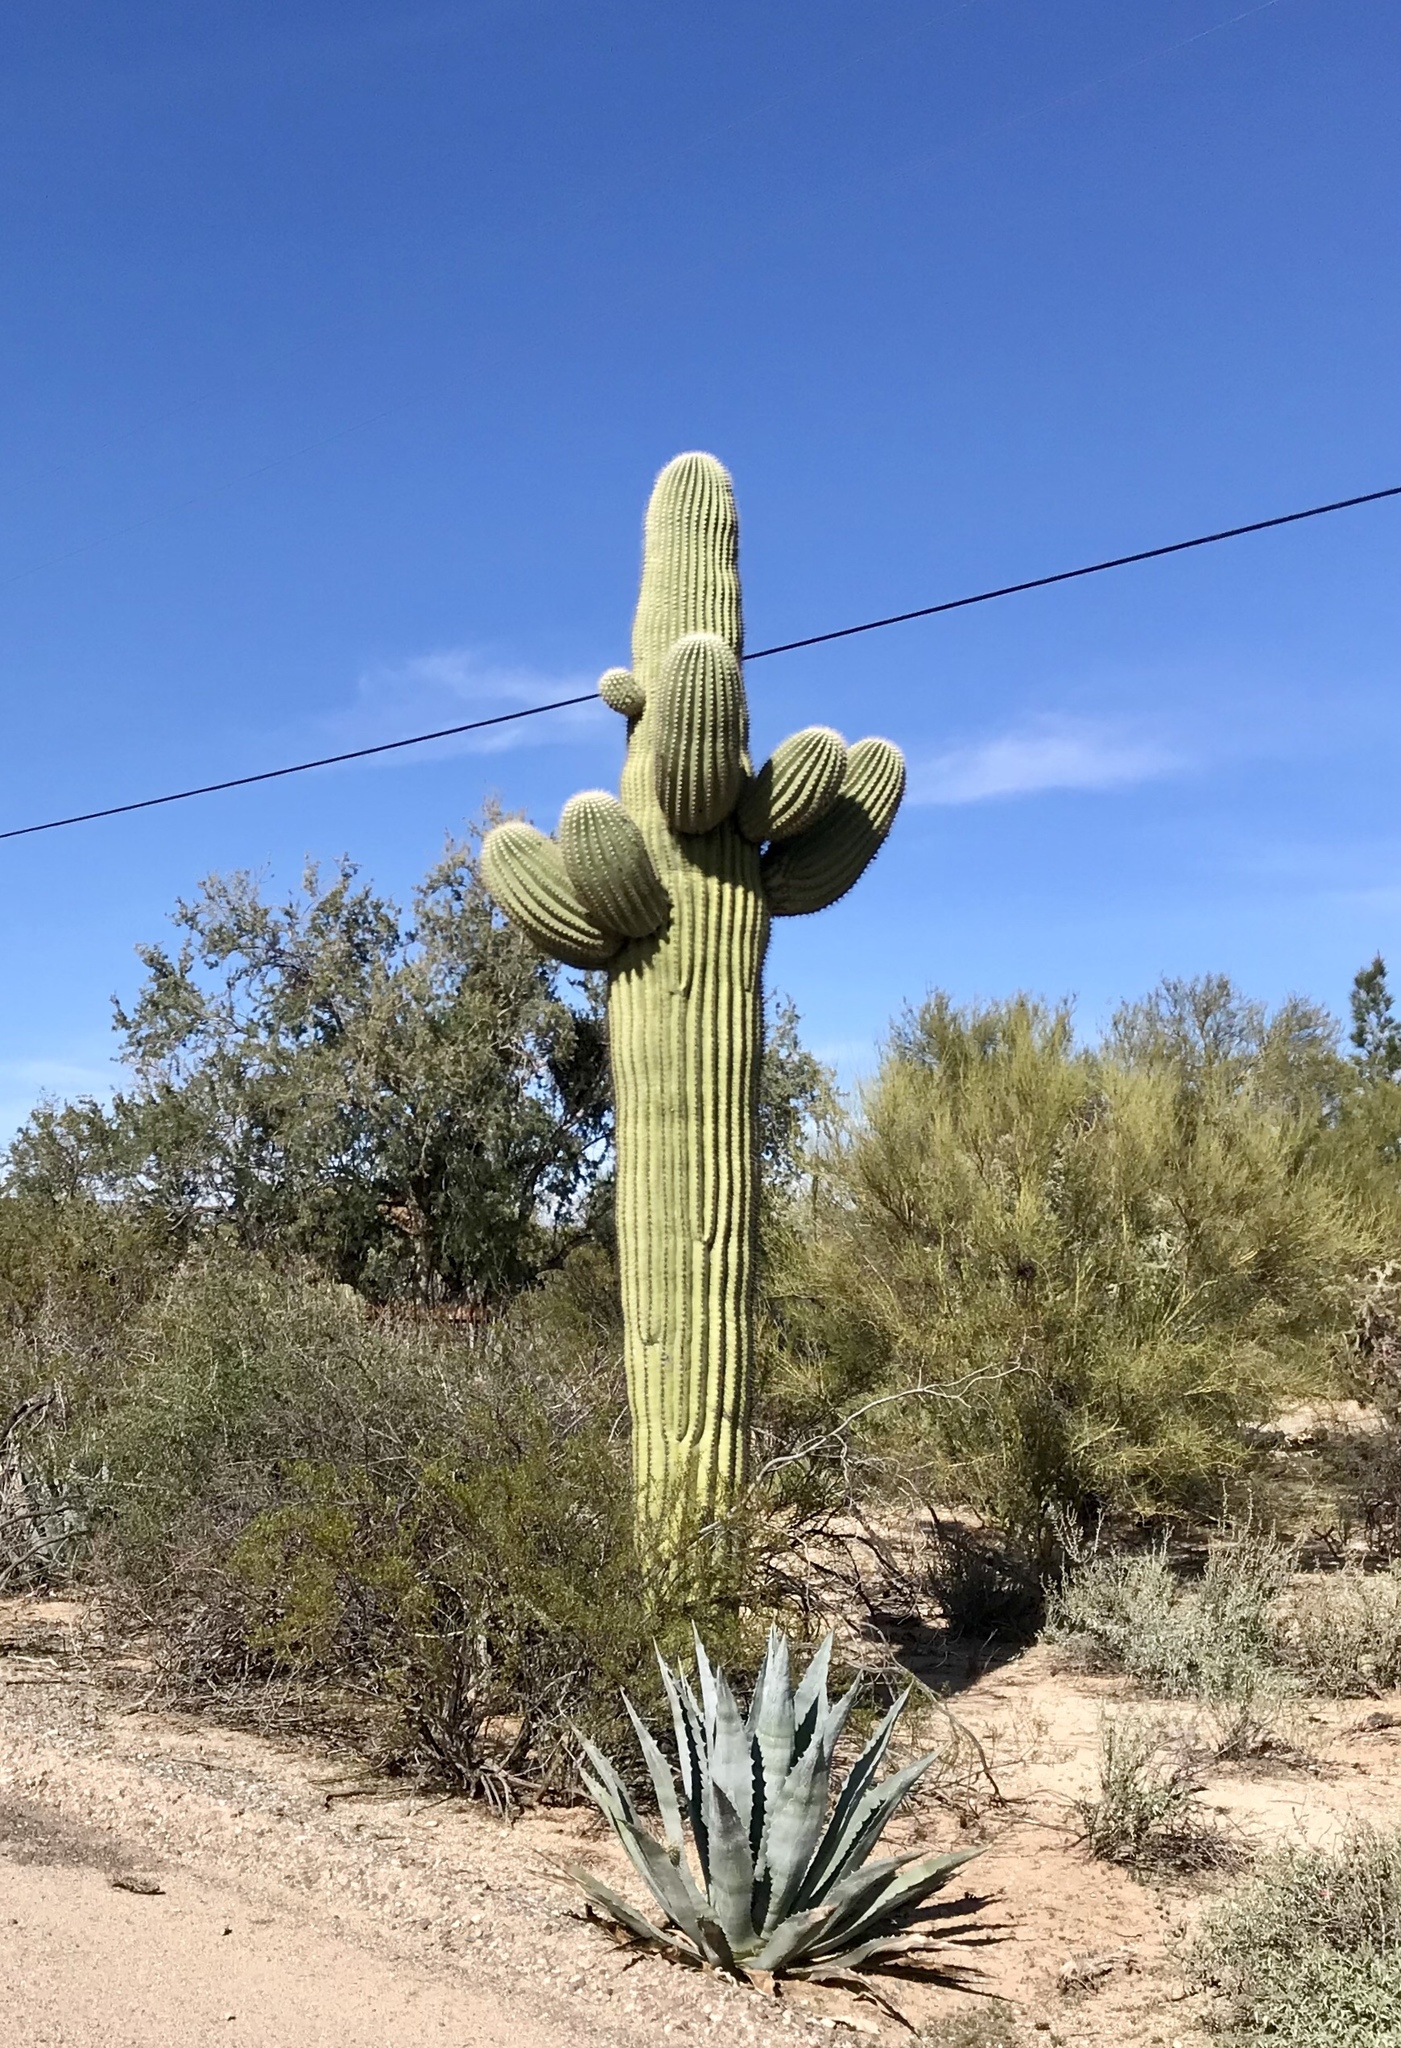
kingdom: Plantae
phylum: Tracheophyta
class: Magnoliopsida
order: Caryophyllales
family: Cactaceae
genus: Carnegiea
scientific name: Carnegiea gigantea
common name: Saguaro
